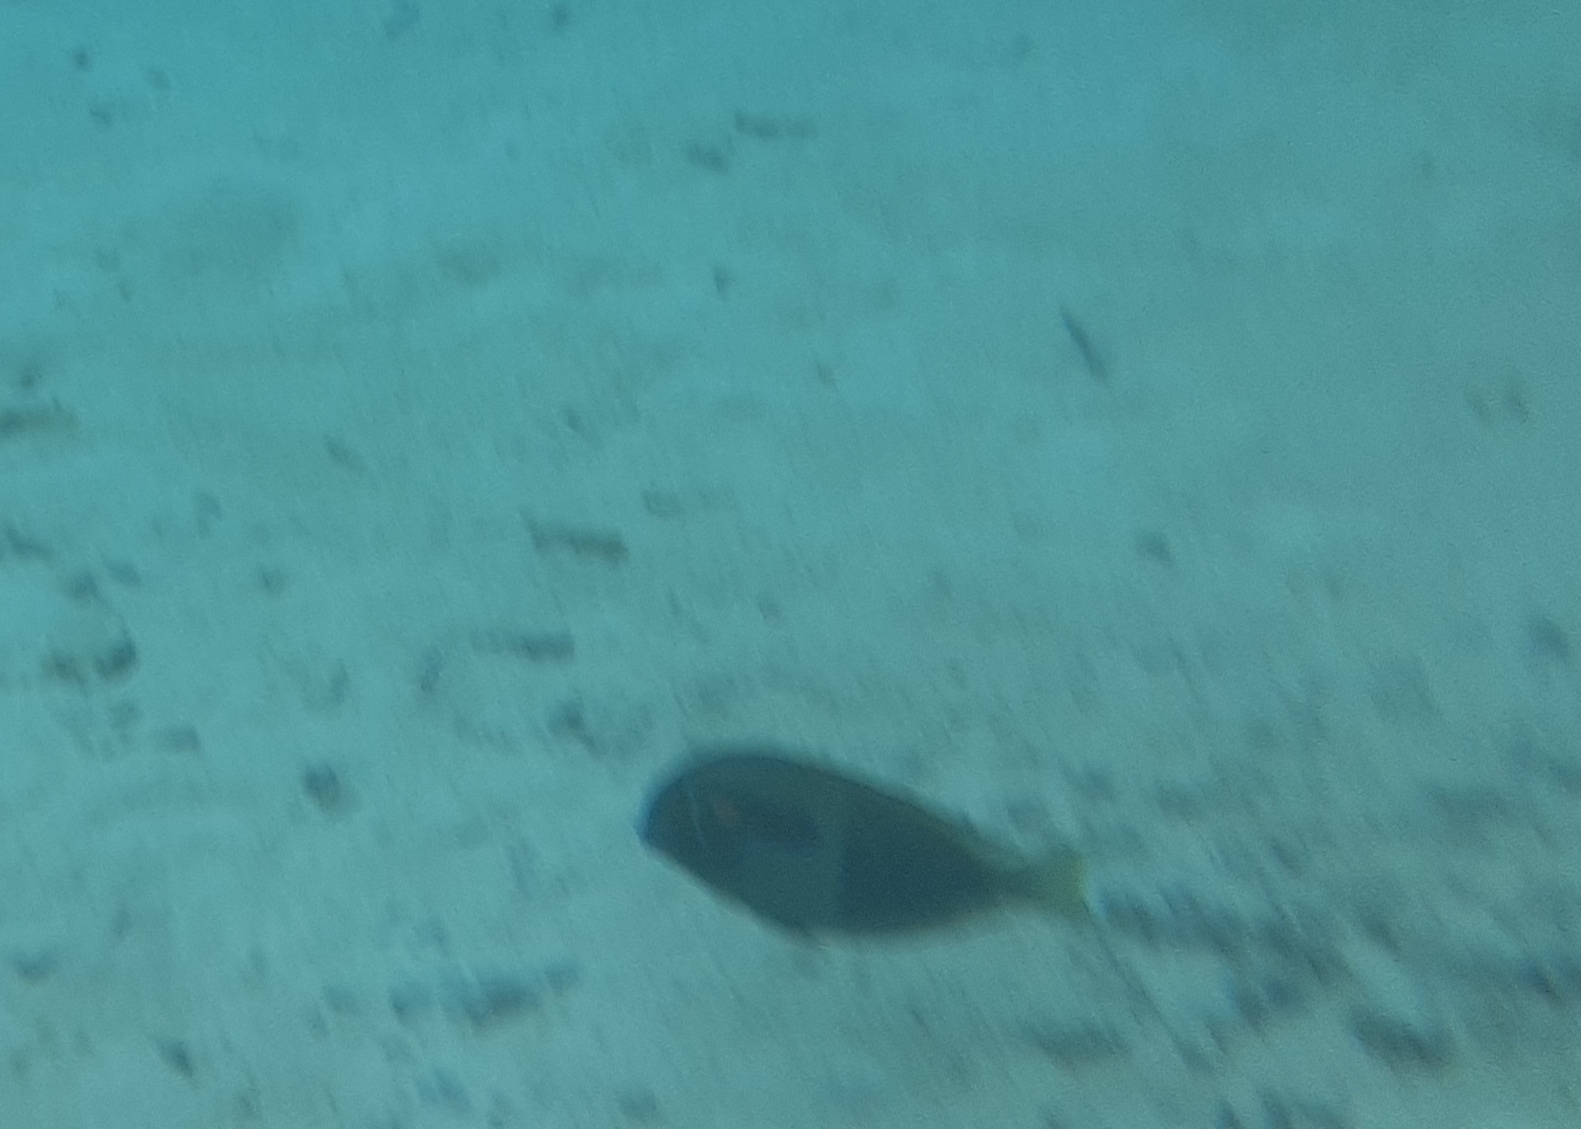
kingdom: Animalia
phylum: Chordata
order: Perciformes
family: Acanthuridae
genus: Acanthurus
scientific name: Acanthurus olivaceus
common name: Gendarme fish
